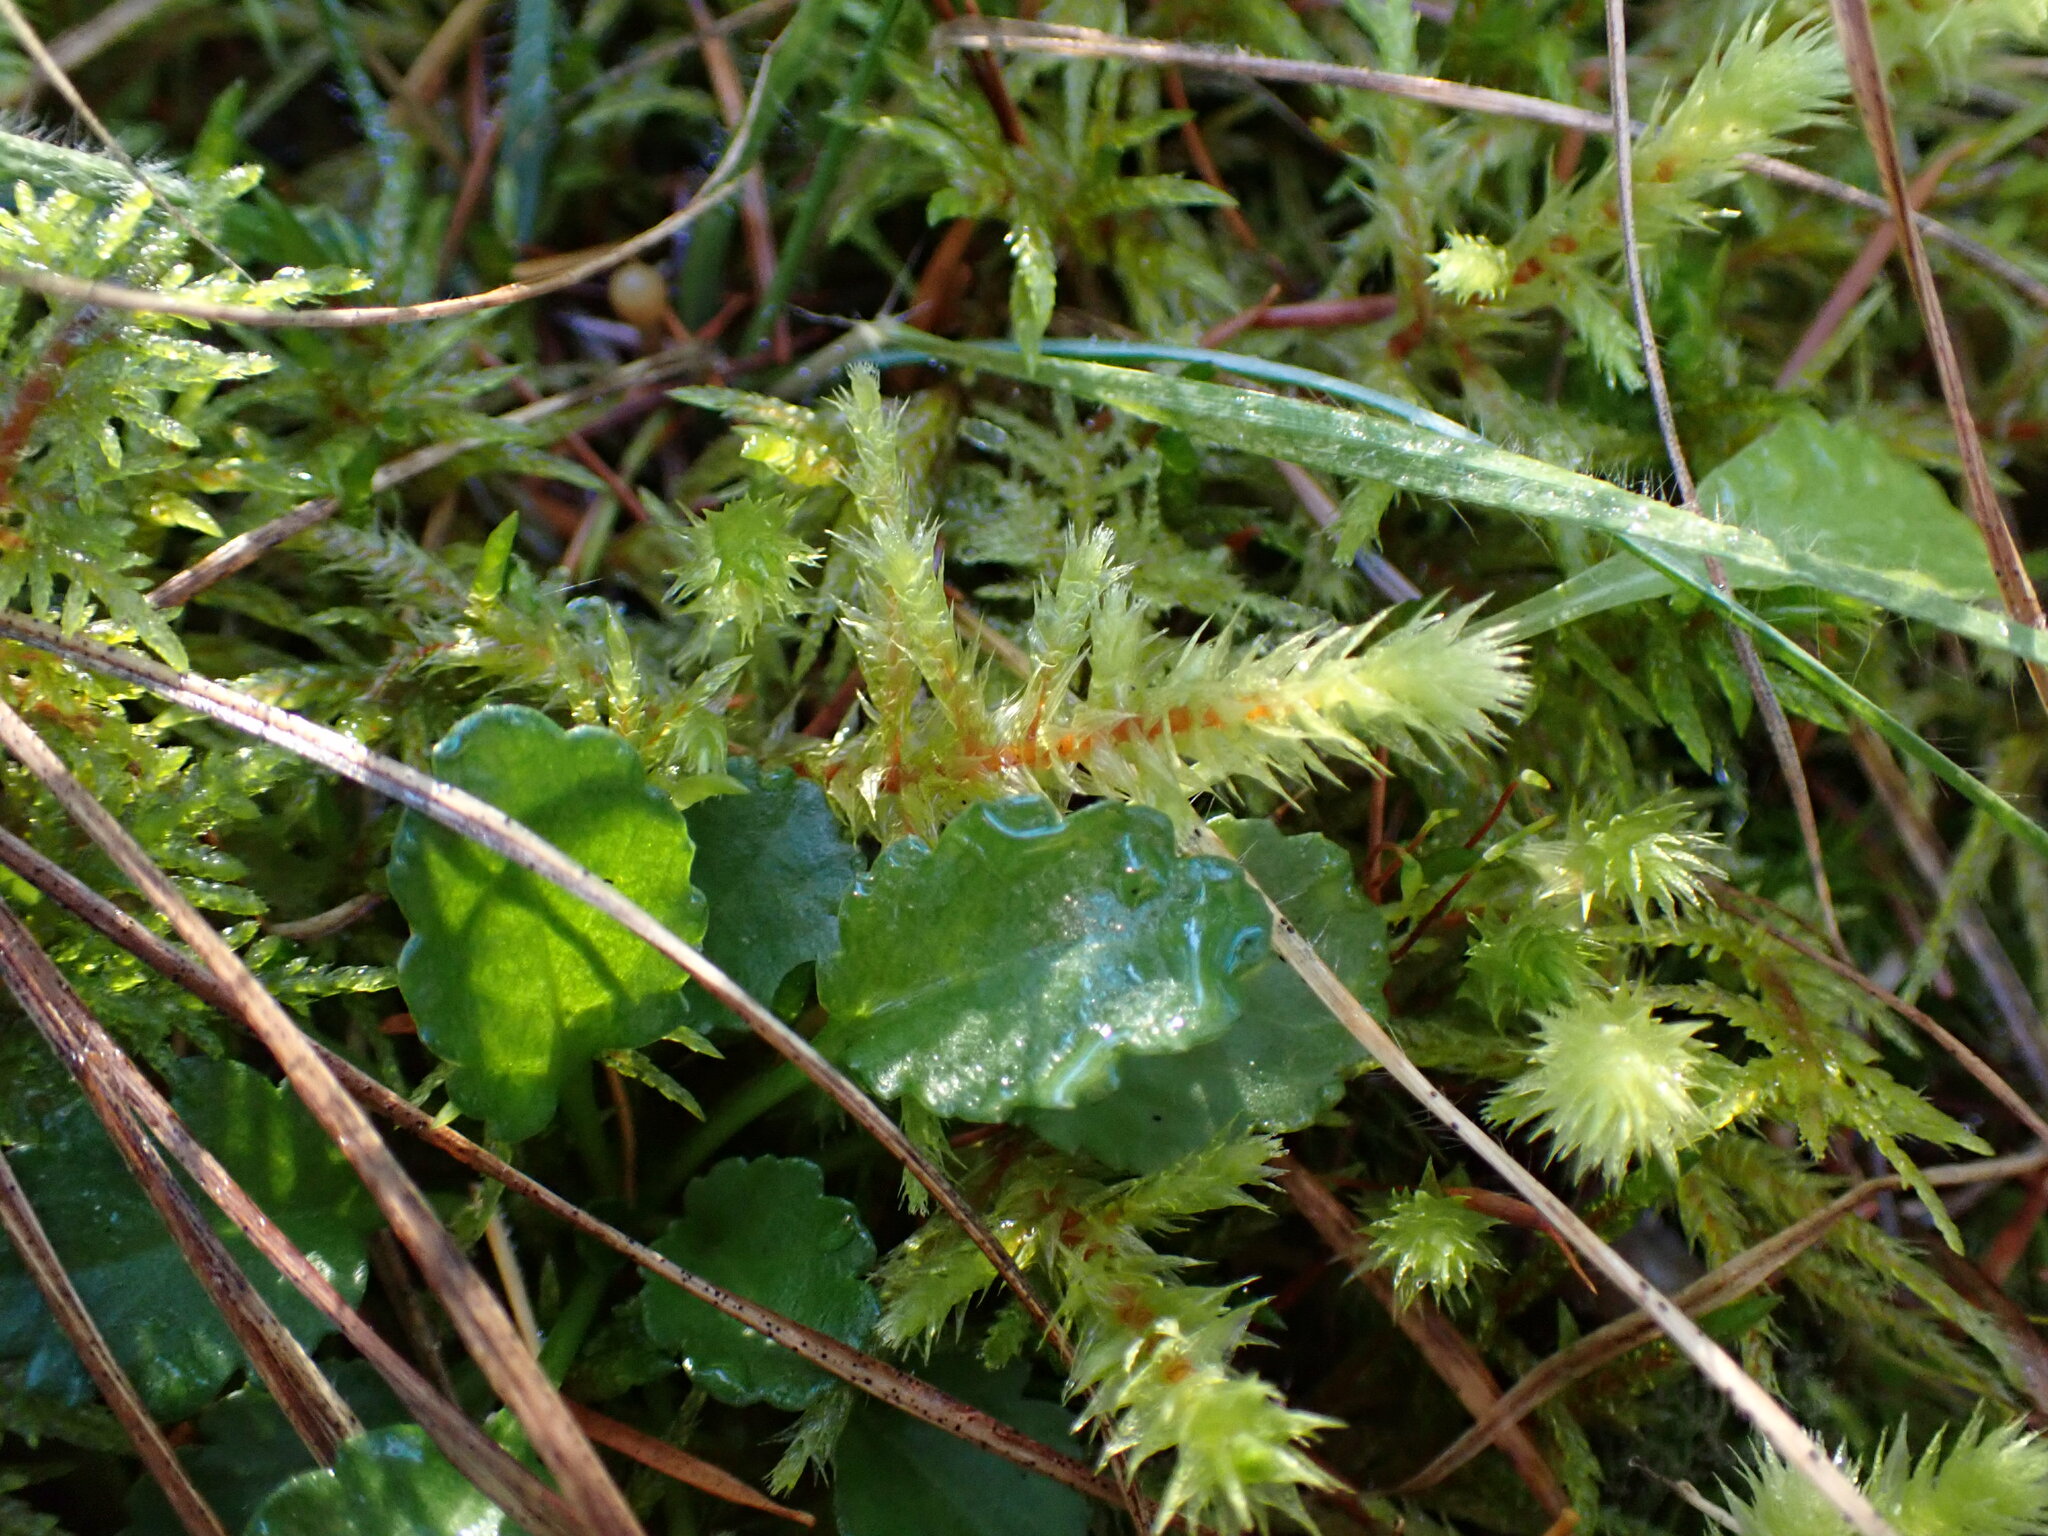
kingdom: Plantae
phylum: Bryophyta
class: Bryopsida
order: Hypnales
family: Hylocomiaceae
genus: Hylocomiadelphus
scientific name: Hylocomiadelphus triquetrus
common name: Rough goose neck moss
